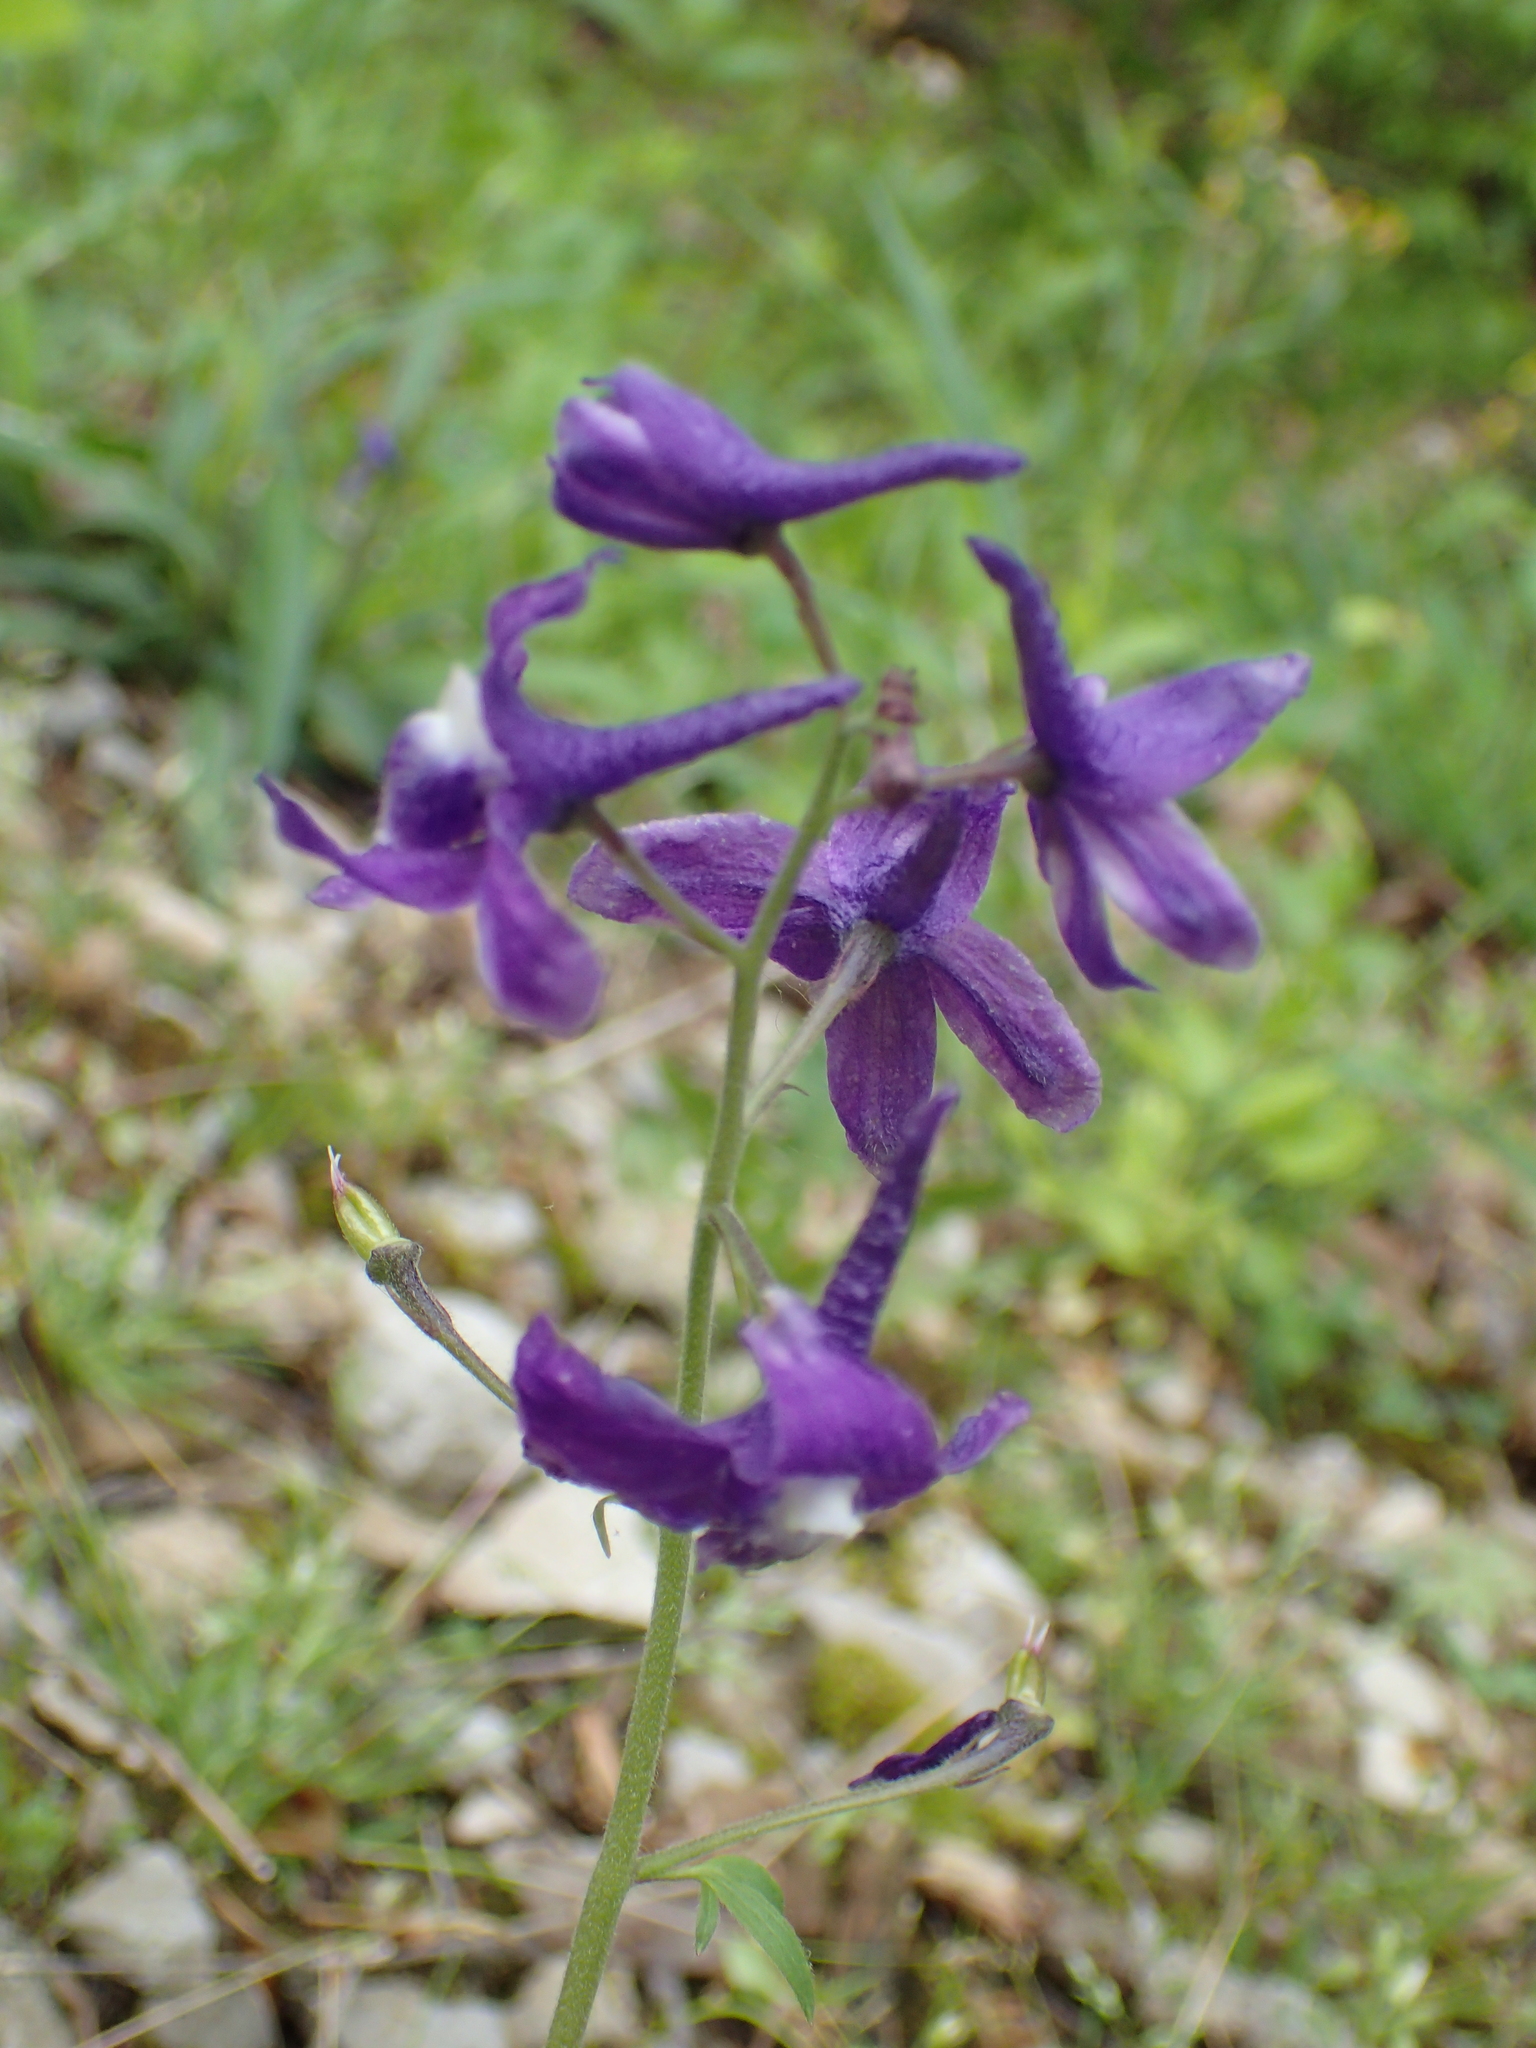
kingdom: Plantae
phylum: Tracheophyta
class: Magnoliopsida
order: Ranunculales
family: Ranunculaceae
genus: Delphinium
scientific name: Delphinium tricorne
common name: Dwarf larkspur
